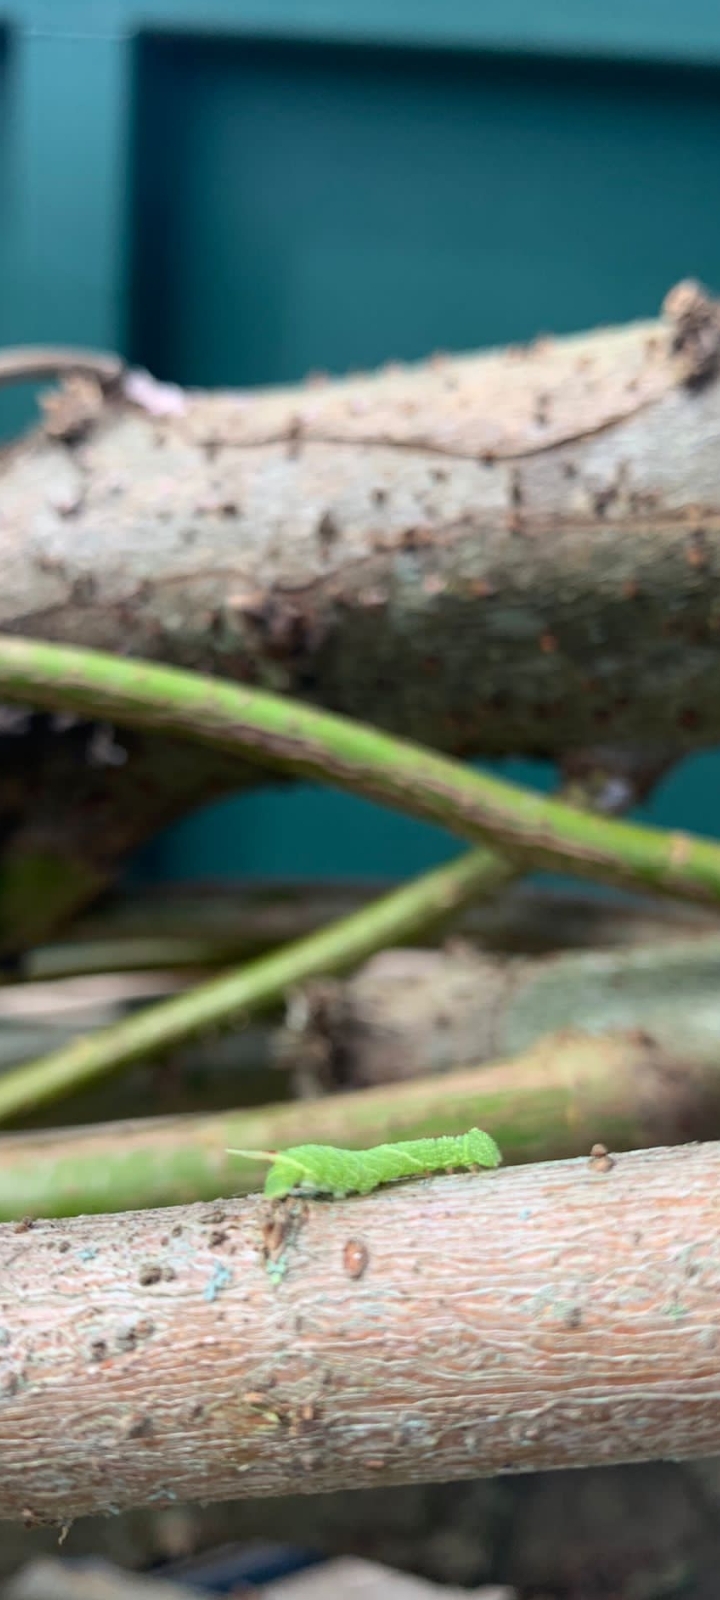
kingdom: Animalia
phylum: Arthropoda
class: Insecta
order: Lepidoptera
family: Sphingidae
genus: Laothoe
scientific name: Laothoe populi
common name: Poplar hawk-moth
